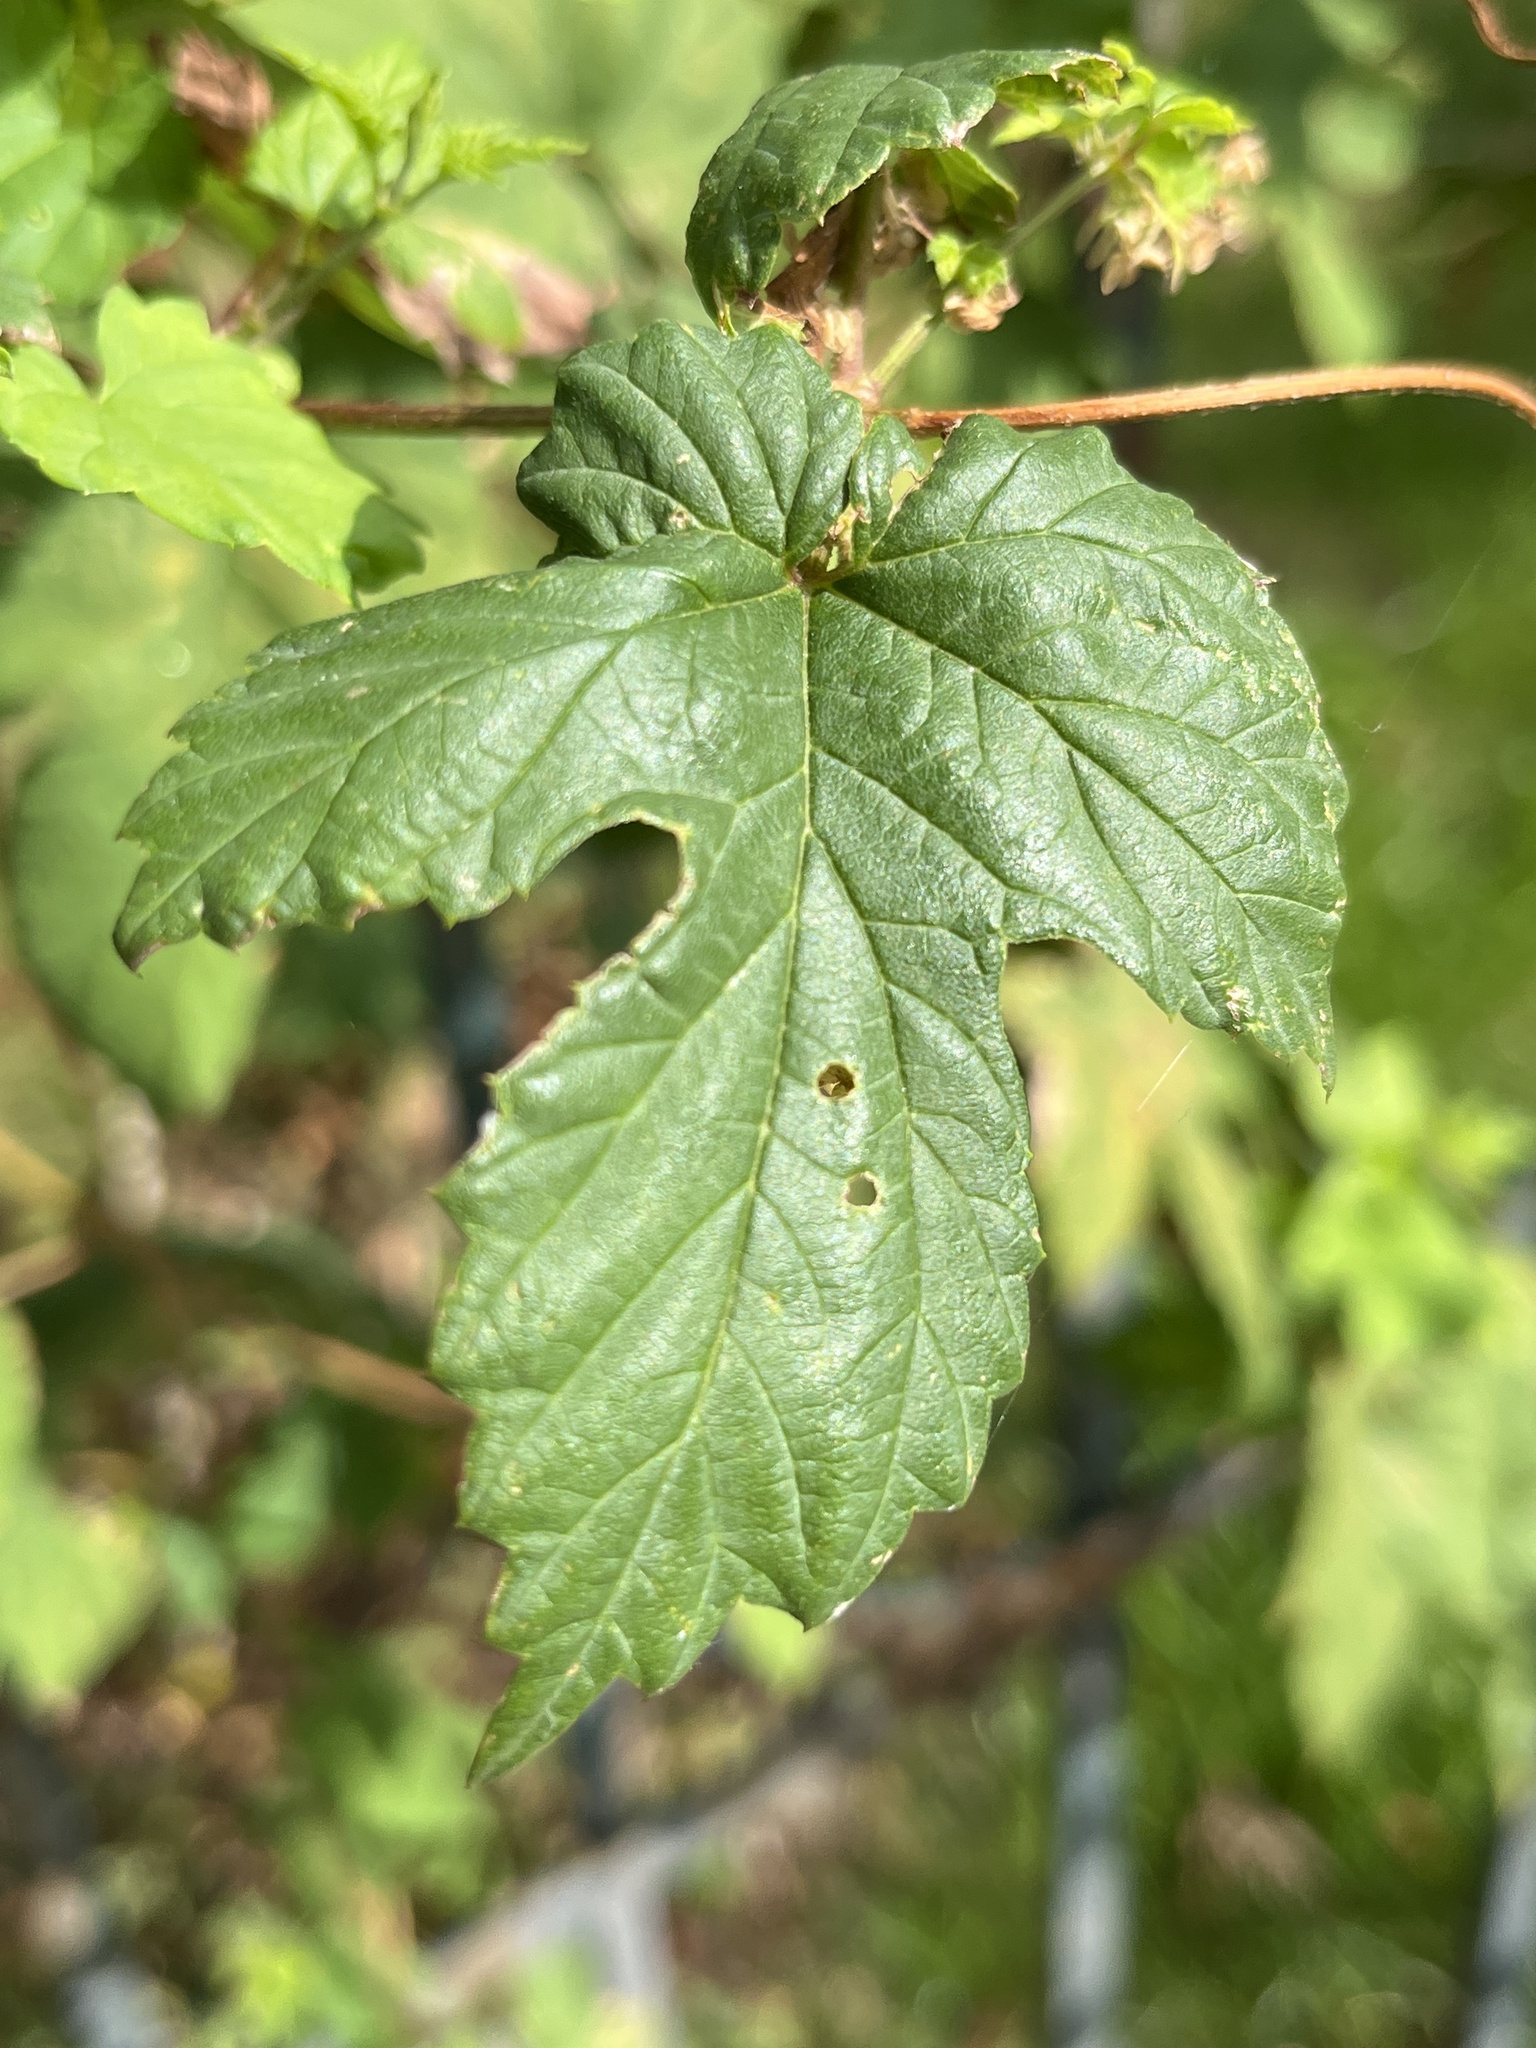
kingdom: Plantae
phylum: Tracheophyta
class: Magnoliopsida
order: Rosales
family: Cannabaceae
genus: Humulus
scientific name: Humulus lupulus
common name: Hop
